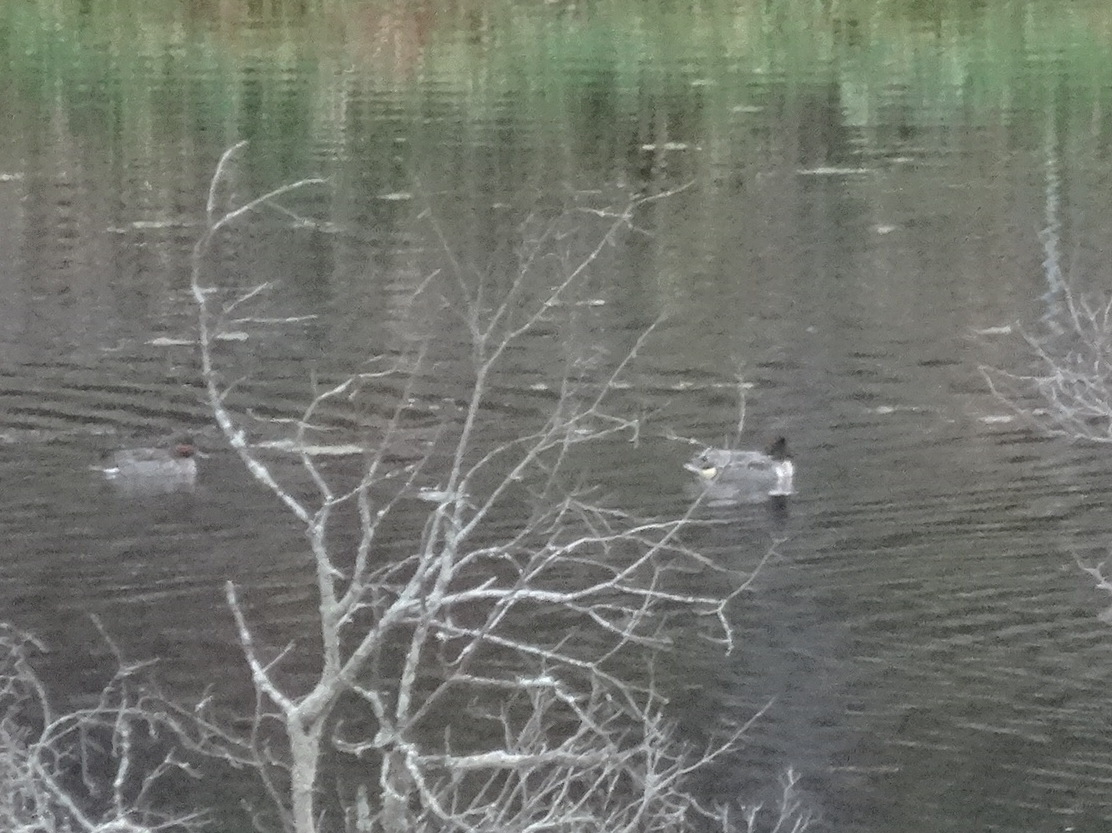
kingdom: Animalia
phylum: Chordata
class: Aves
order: Anseriformes
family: Anatidae
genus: Anas
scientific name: Anas crecca
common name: Eurasian teal
